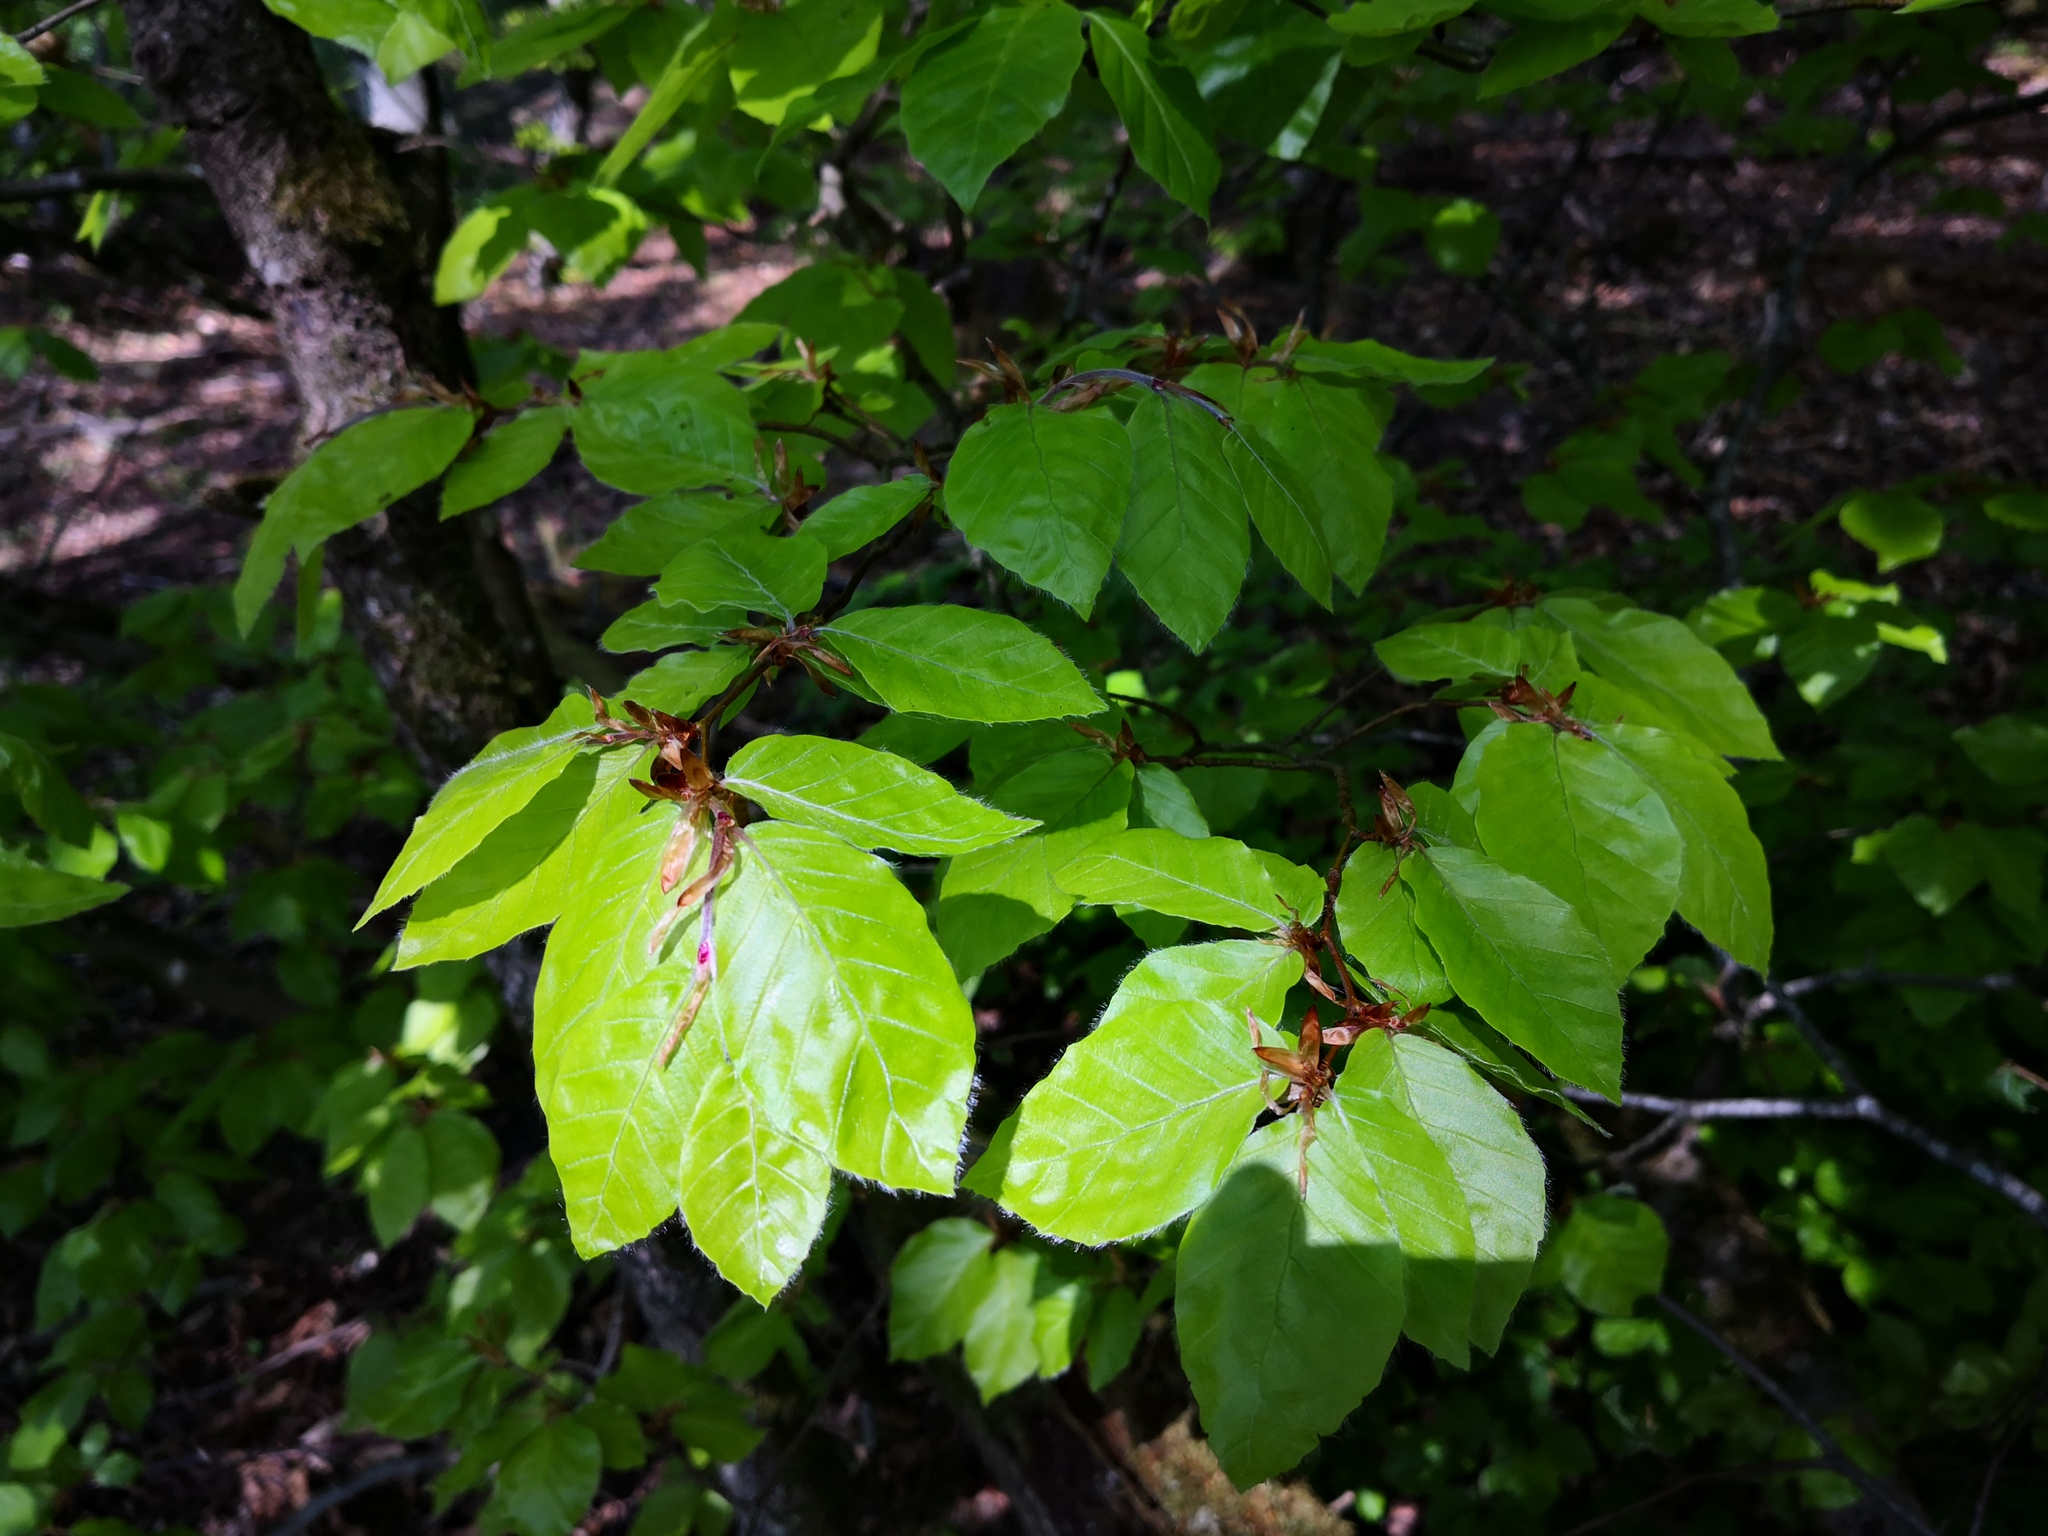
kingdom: Plantae
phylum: Tracheophyta
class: Magnoliopsida
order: Fagales
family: Fagaceae
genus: Fagus
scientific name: Fagus sylvatica
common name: Beech
